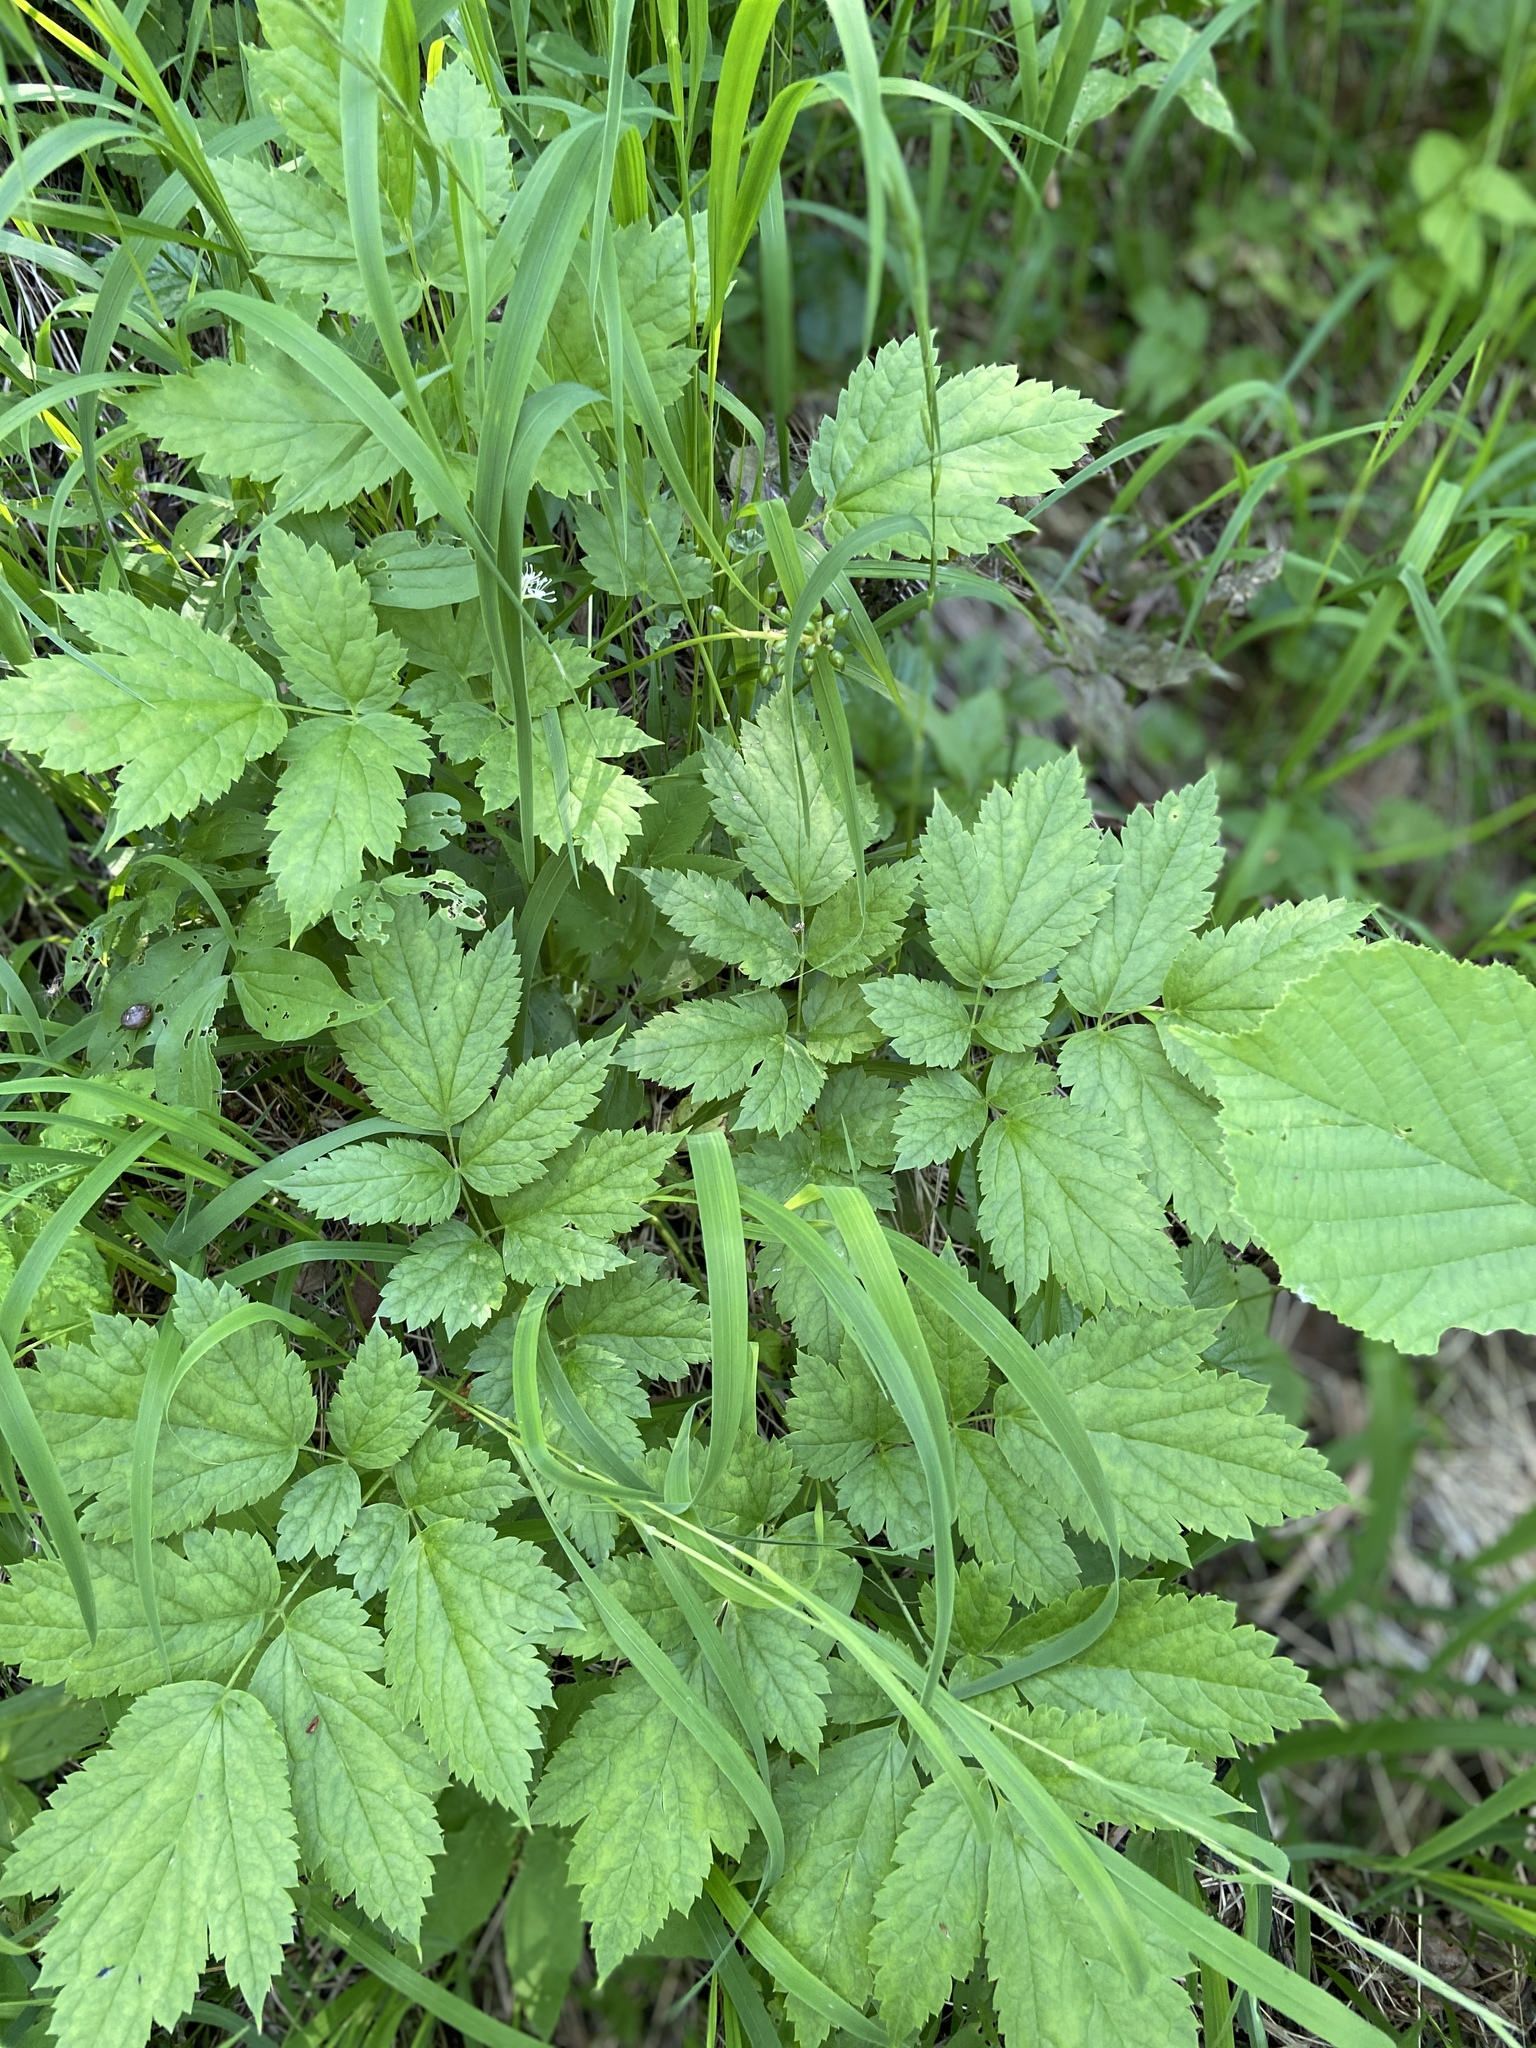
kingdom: Plantae
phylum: Tracheophyta
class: Magnoliopsida
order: Ranunculales
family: Ranunculaceae
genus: Actaea
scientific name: Actaea spicata
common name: Baneberry
